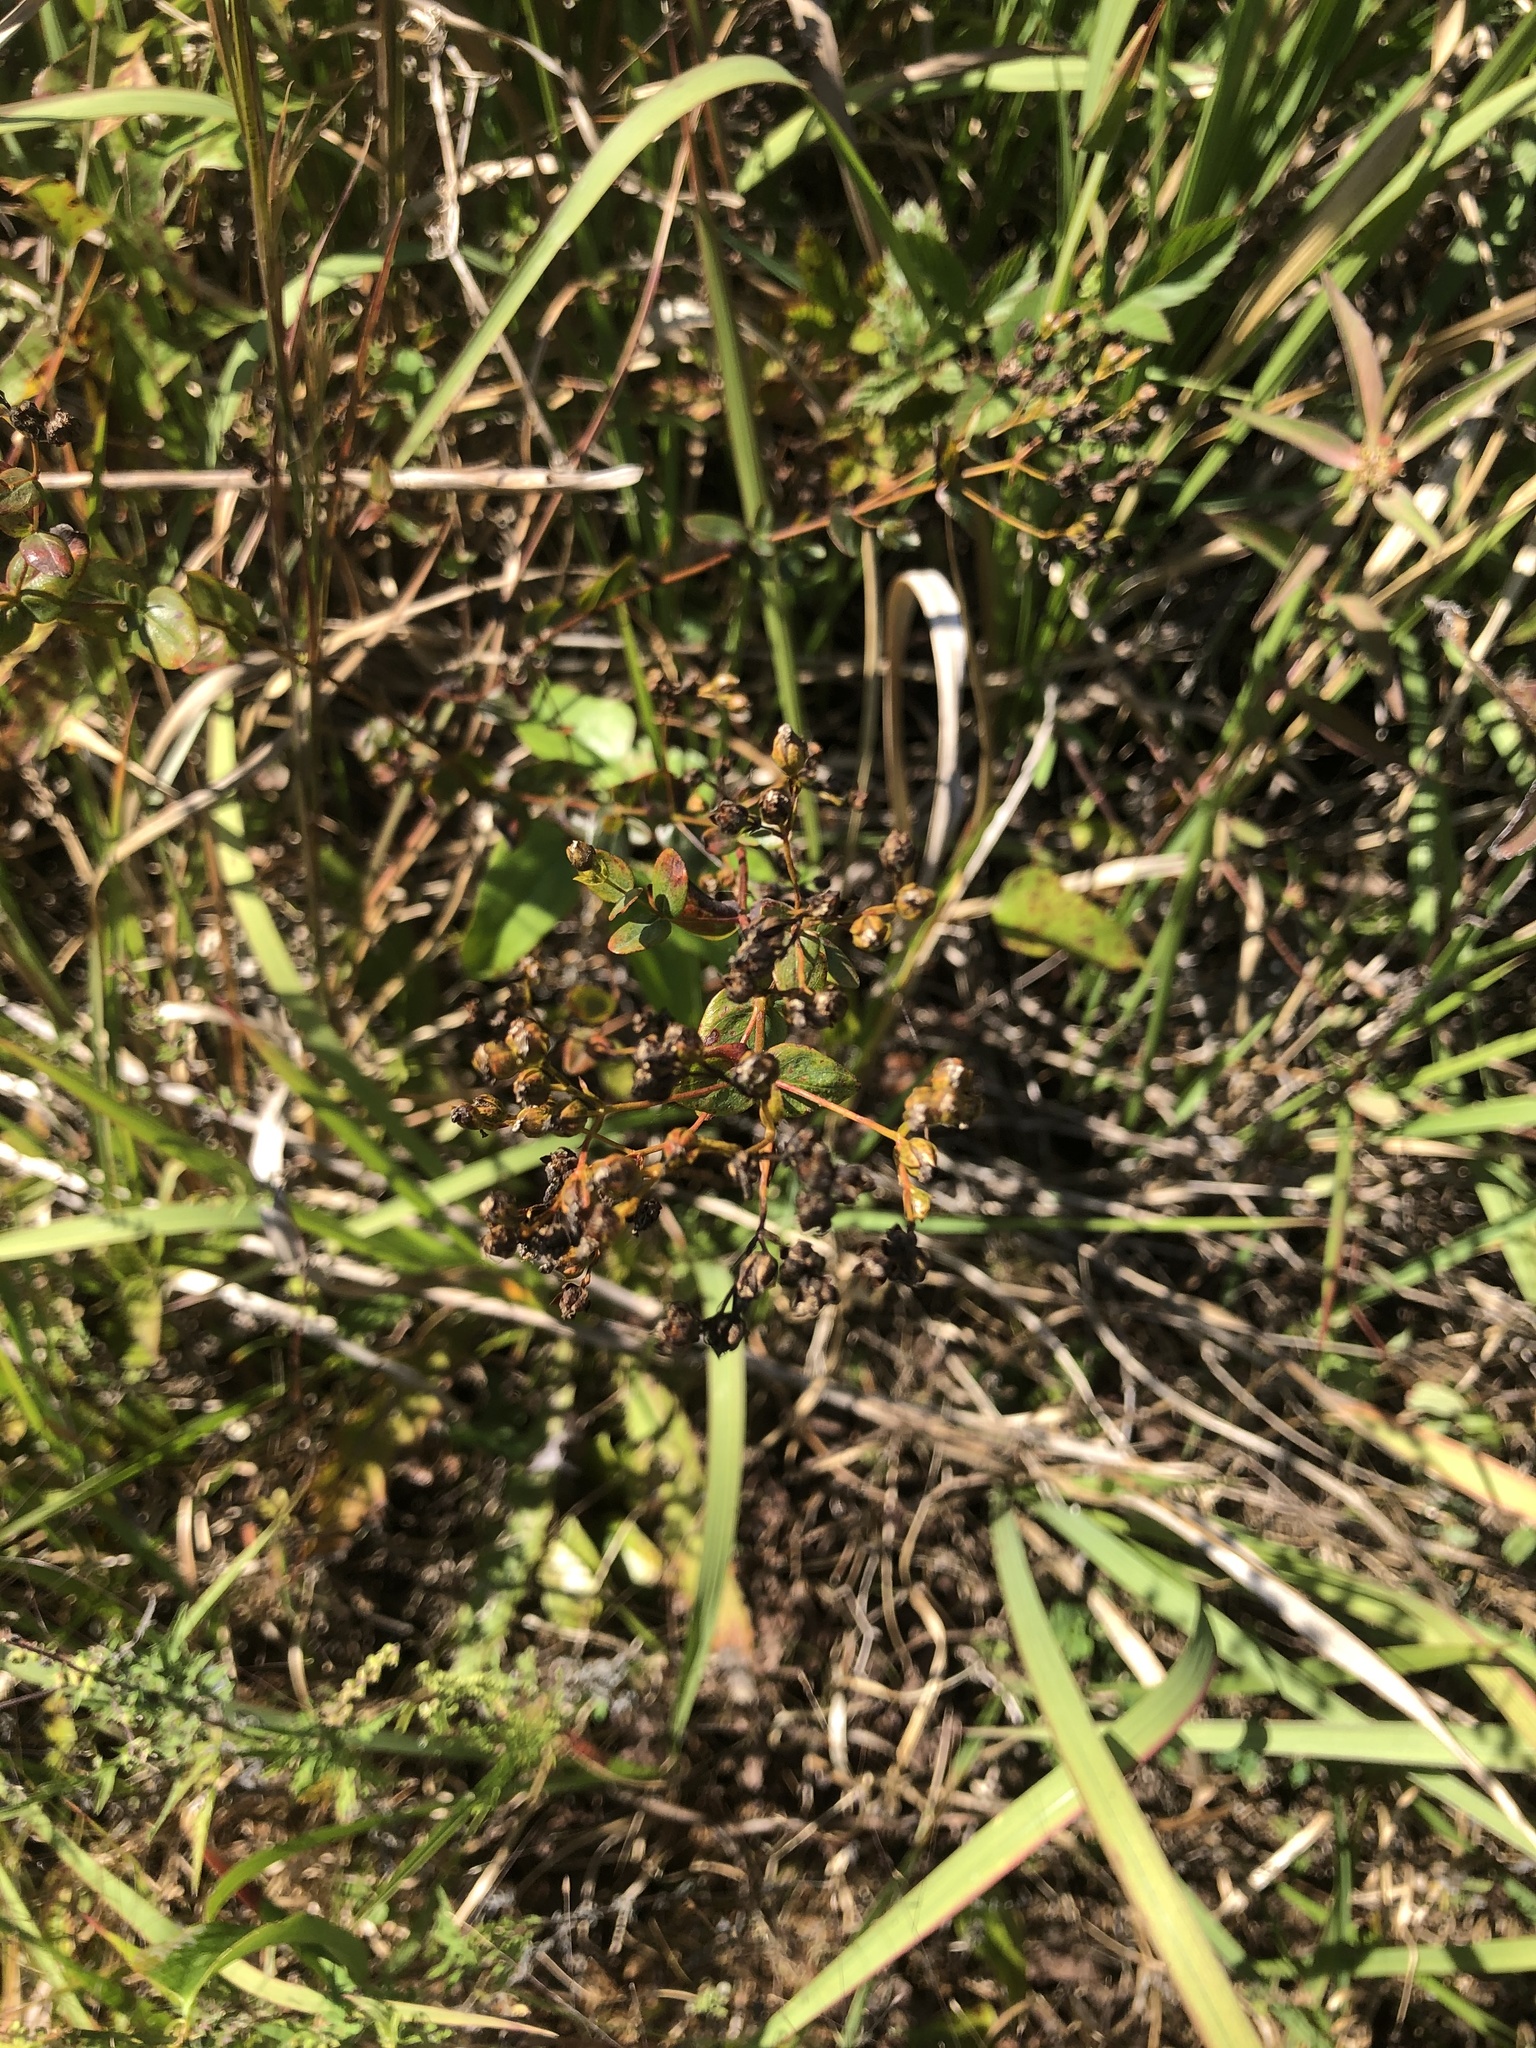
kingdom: Plantae
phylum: Tracheophyta
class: Magnoliopsida
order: Malpighiales
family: Hypericaceae
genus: Hypericum
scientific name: Hypericum sphaerocarpum
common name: Round-fruited st. john's-wort
